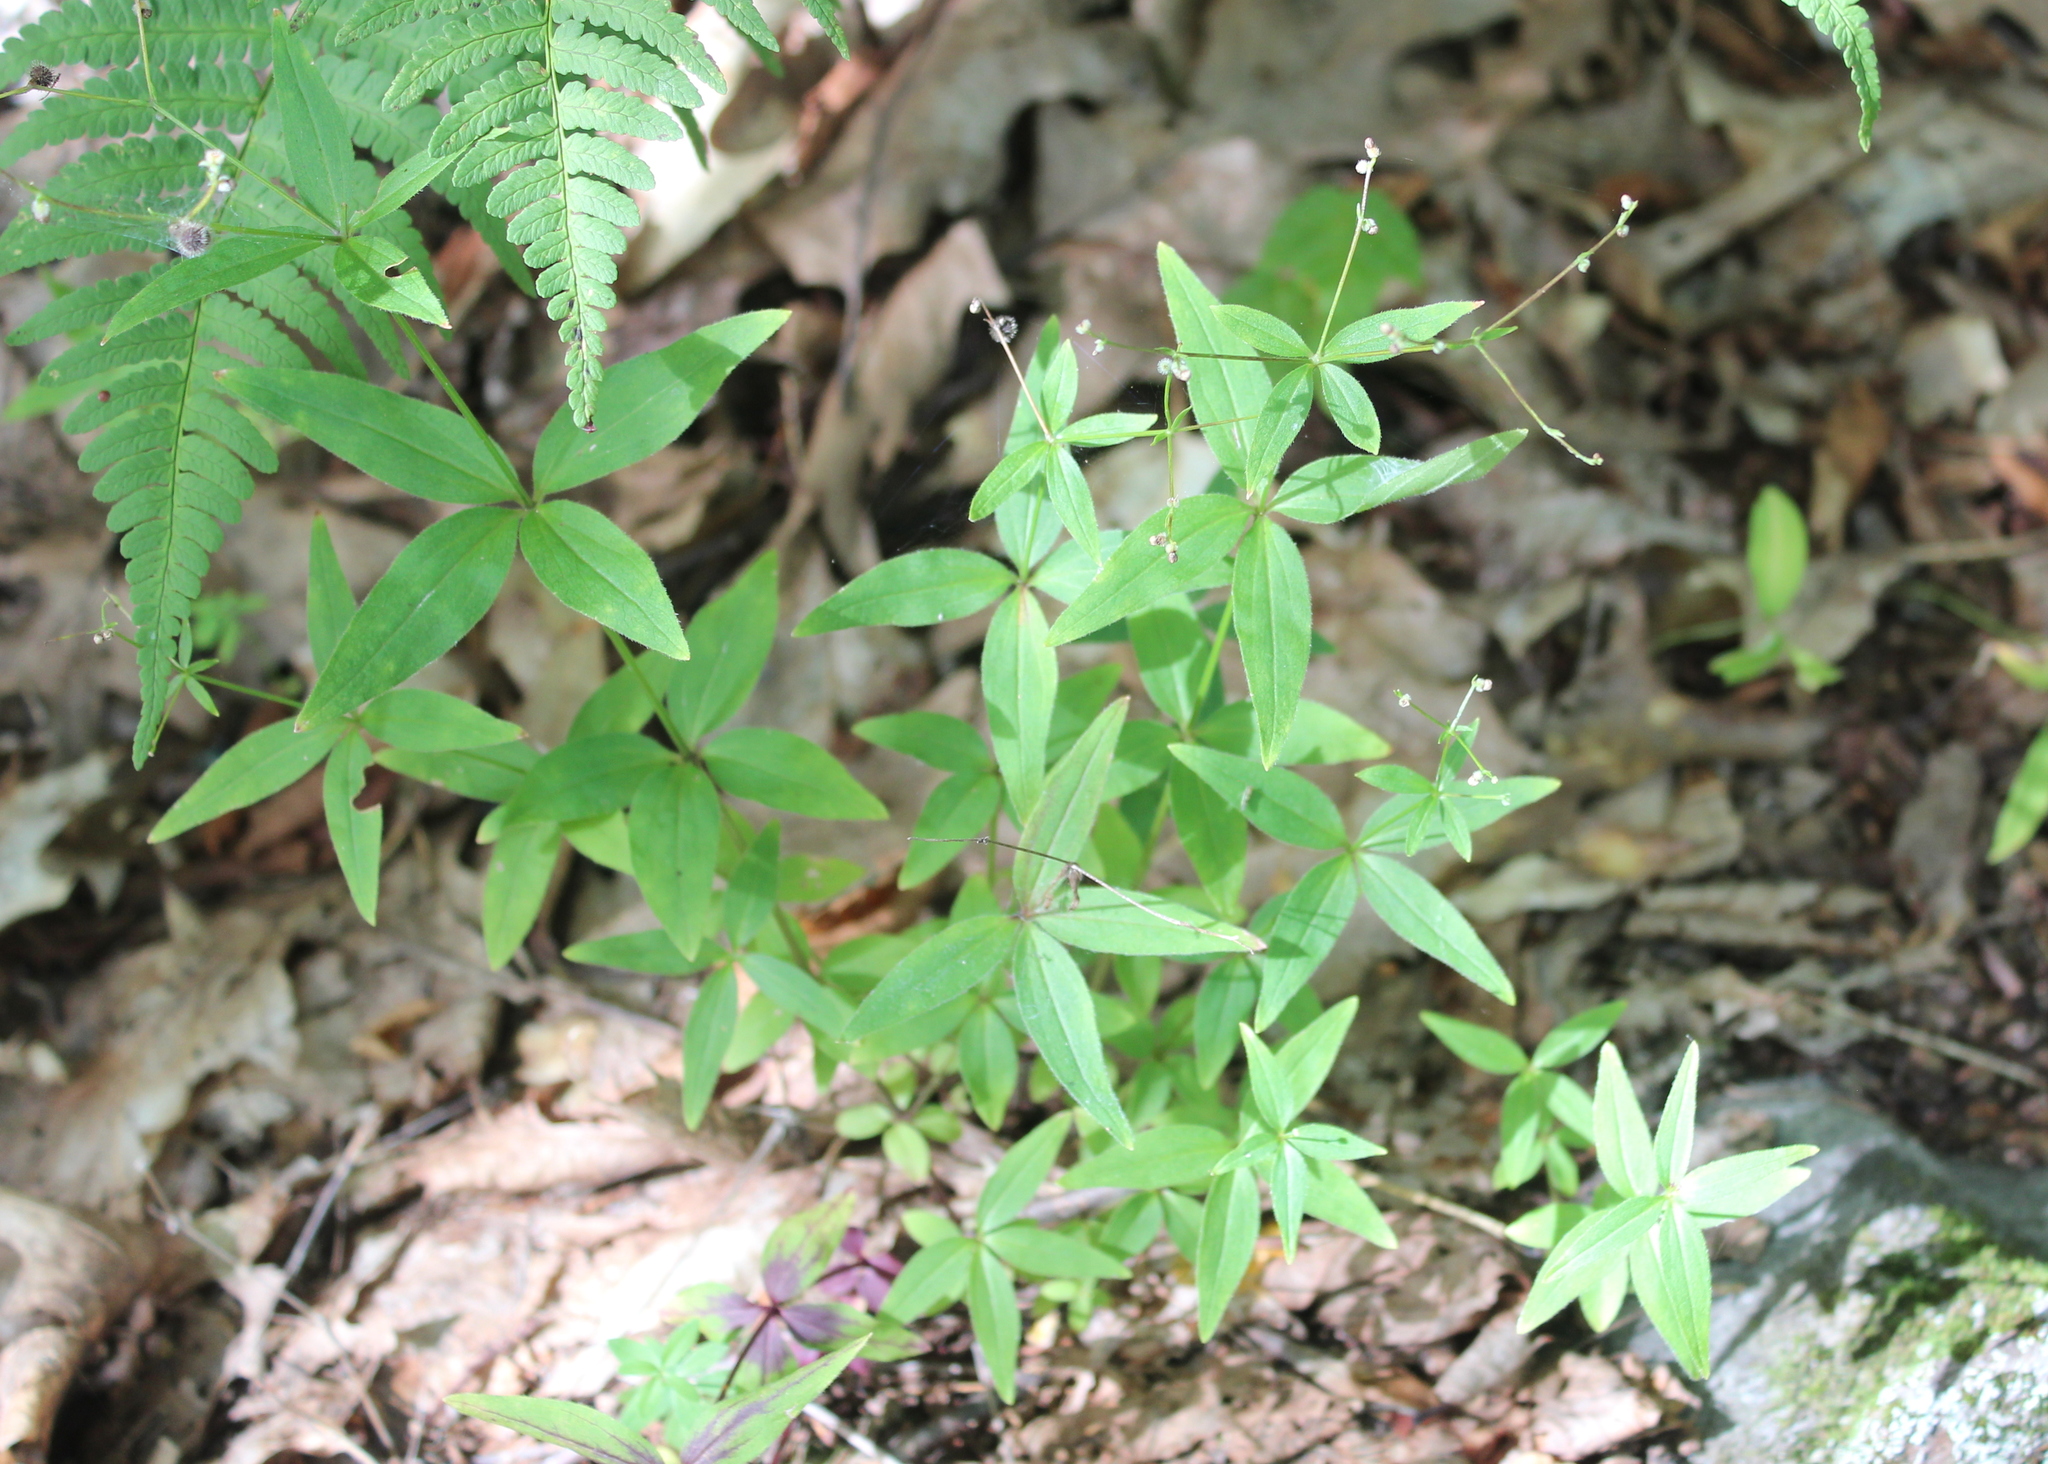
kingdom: Plantae
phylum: Tracheophyta
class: Magnoliopsida
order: Gentianales
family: Rubiaceae
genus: Galium
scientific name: Galium lanceolatum
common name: Lance-leaved wild licorice
